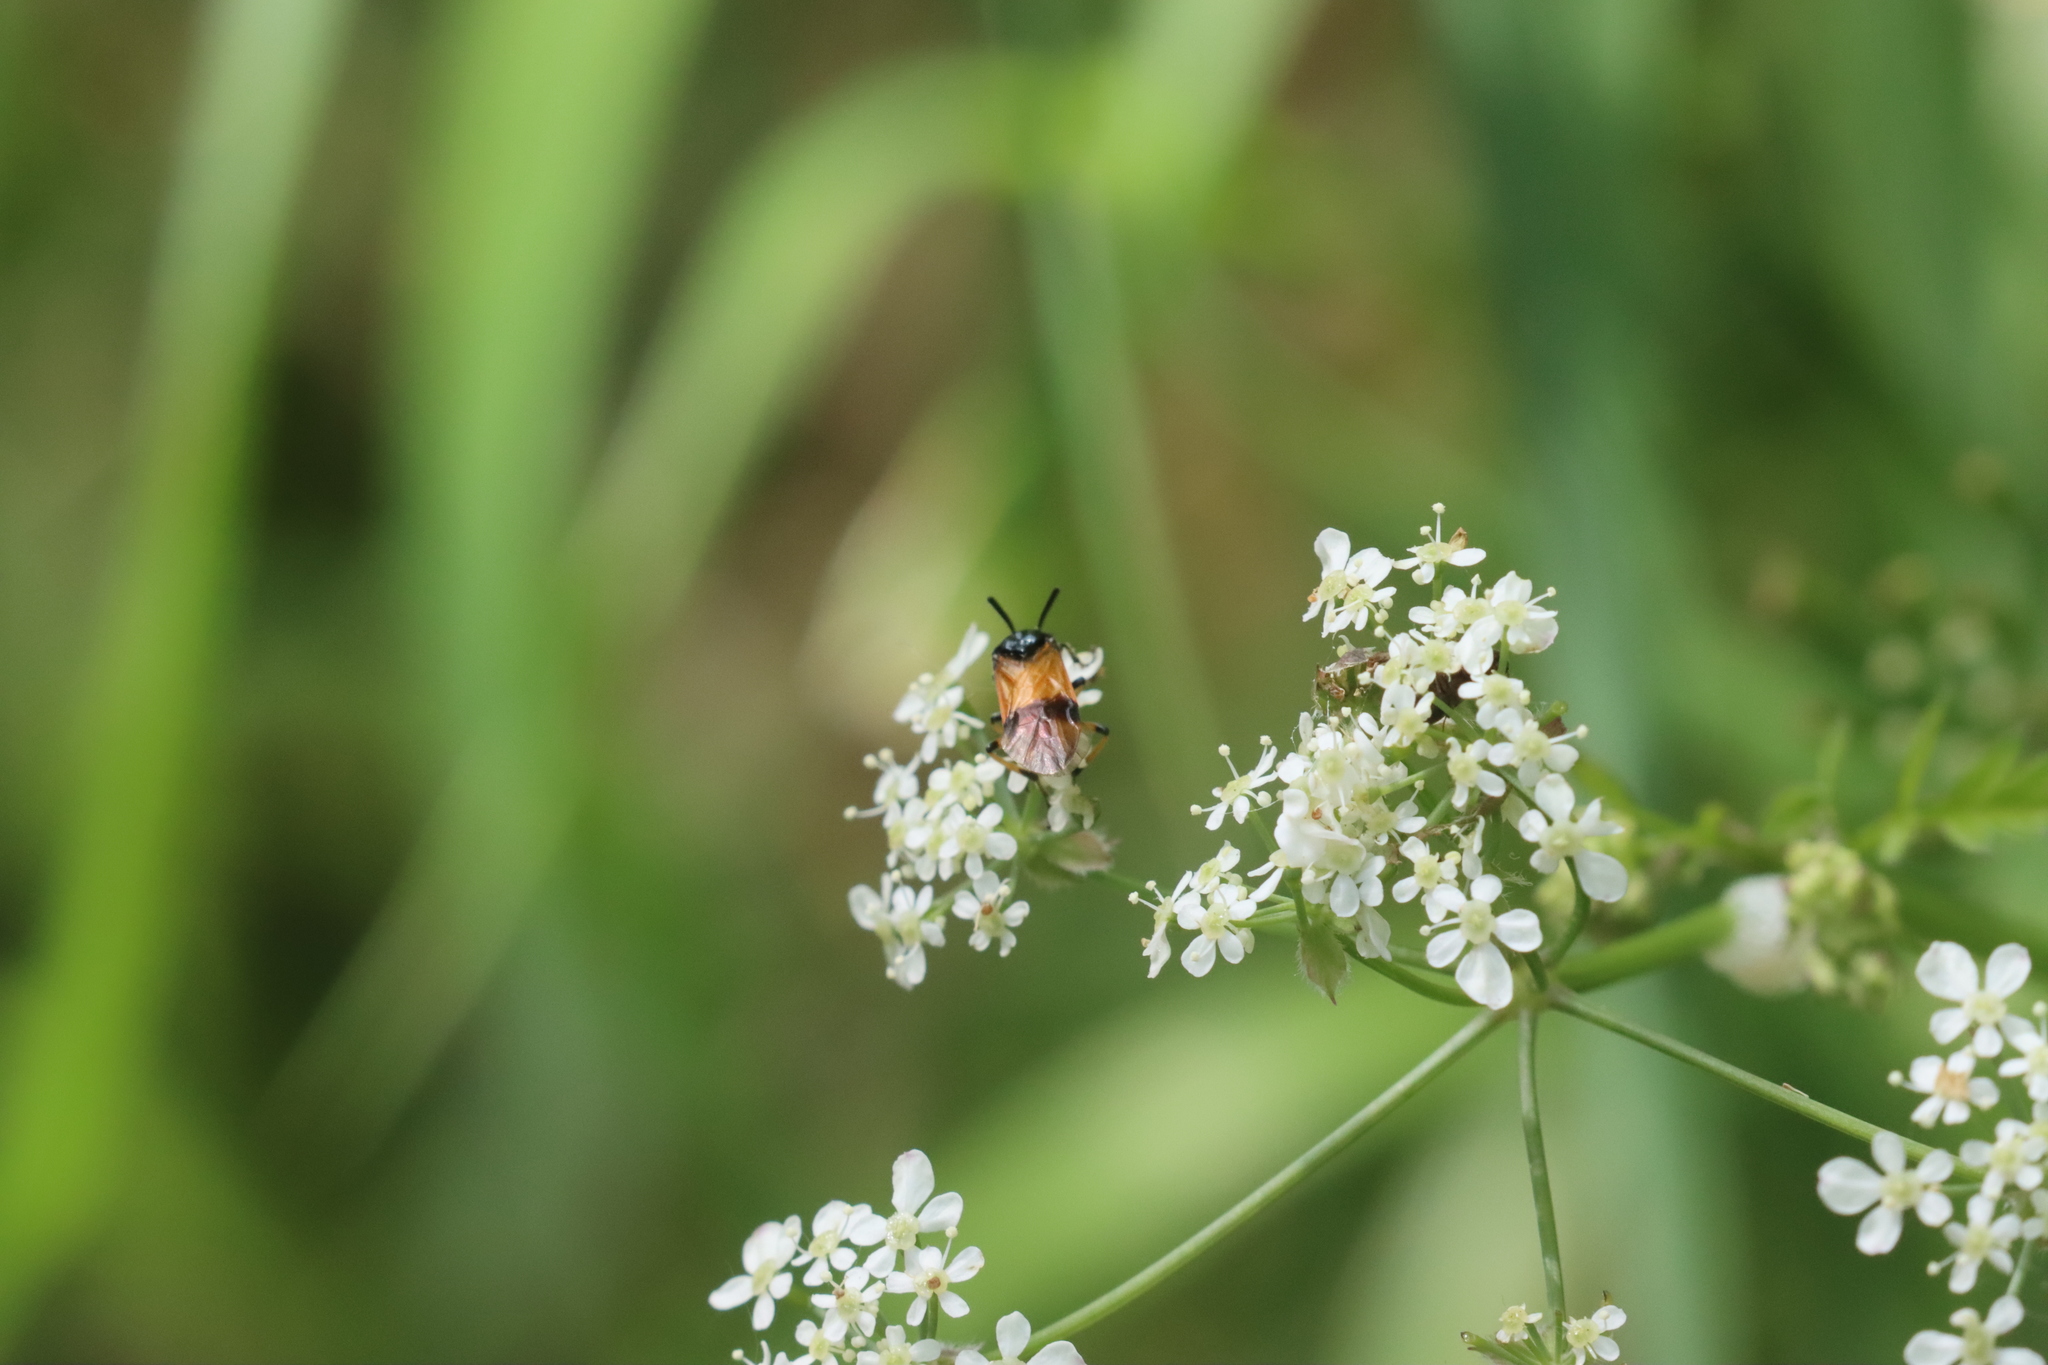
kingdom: Animalia
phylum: Arthropoda
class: Insecta
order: Hymenoptera
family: Argidae
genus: Arge
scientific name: Arge cyanocrocea
